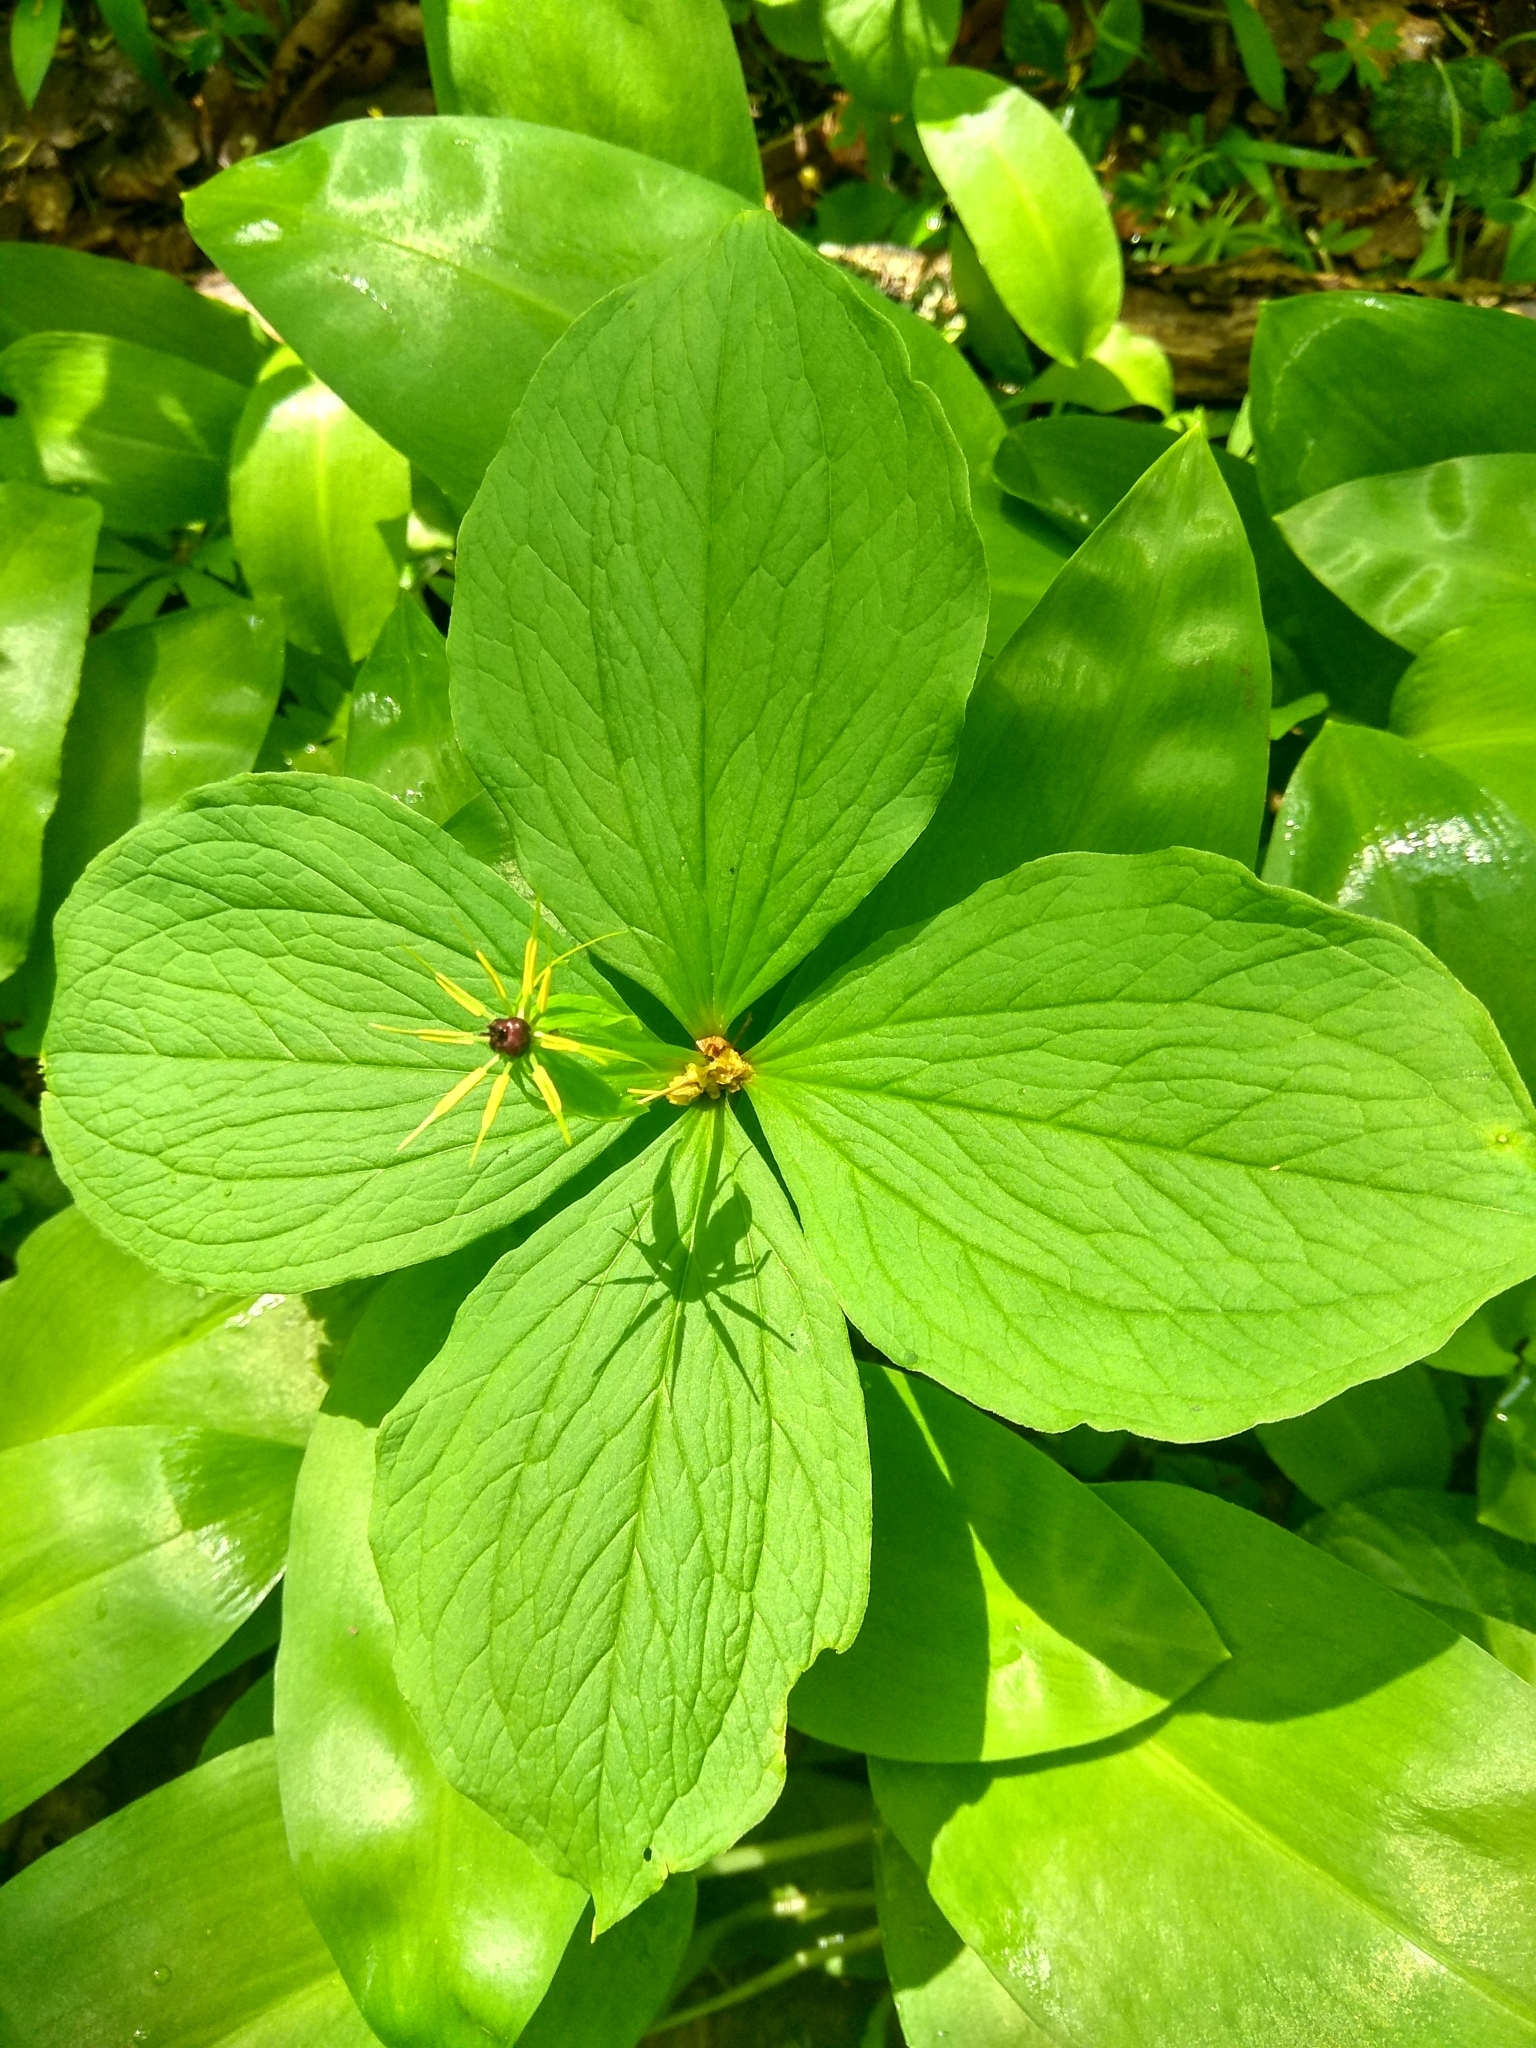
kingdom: Plantae
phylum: Tracheophyta
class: Liliopsida
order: Liliales
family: Melanthiaceae
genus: Paris
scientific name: Paris quadrifolia
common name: Herb-paris
